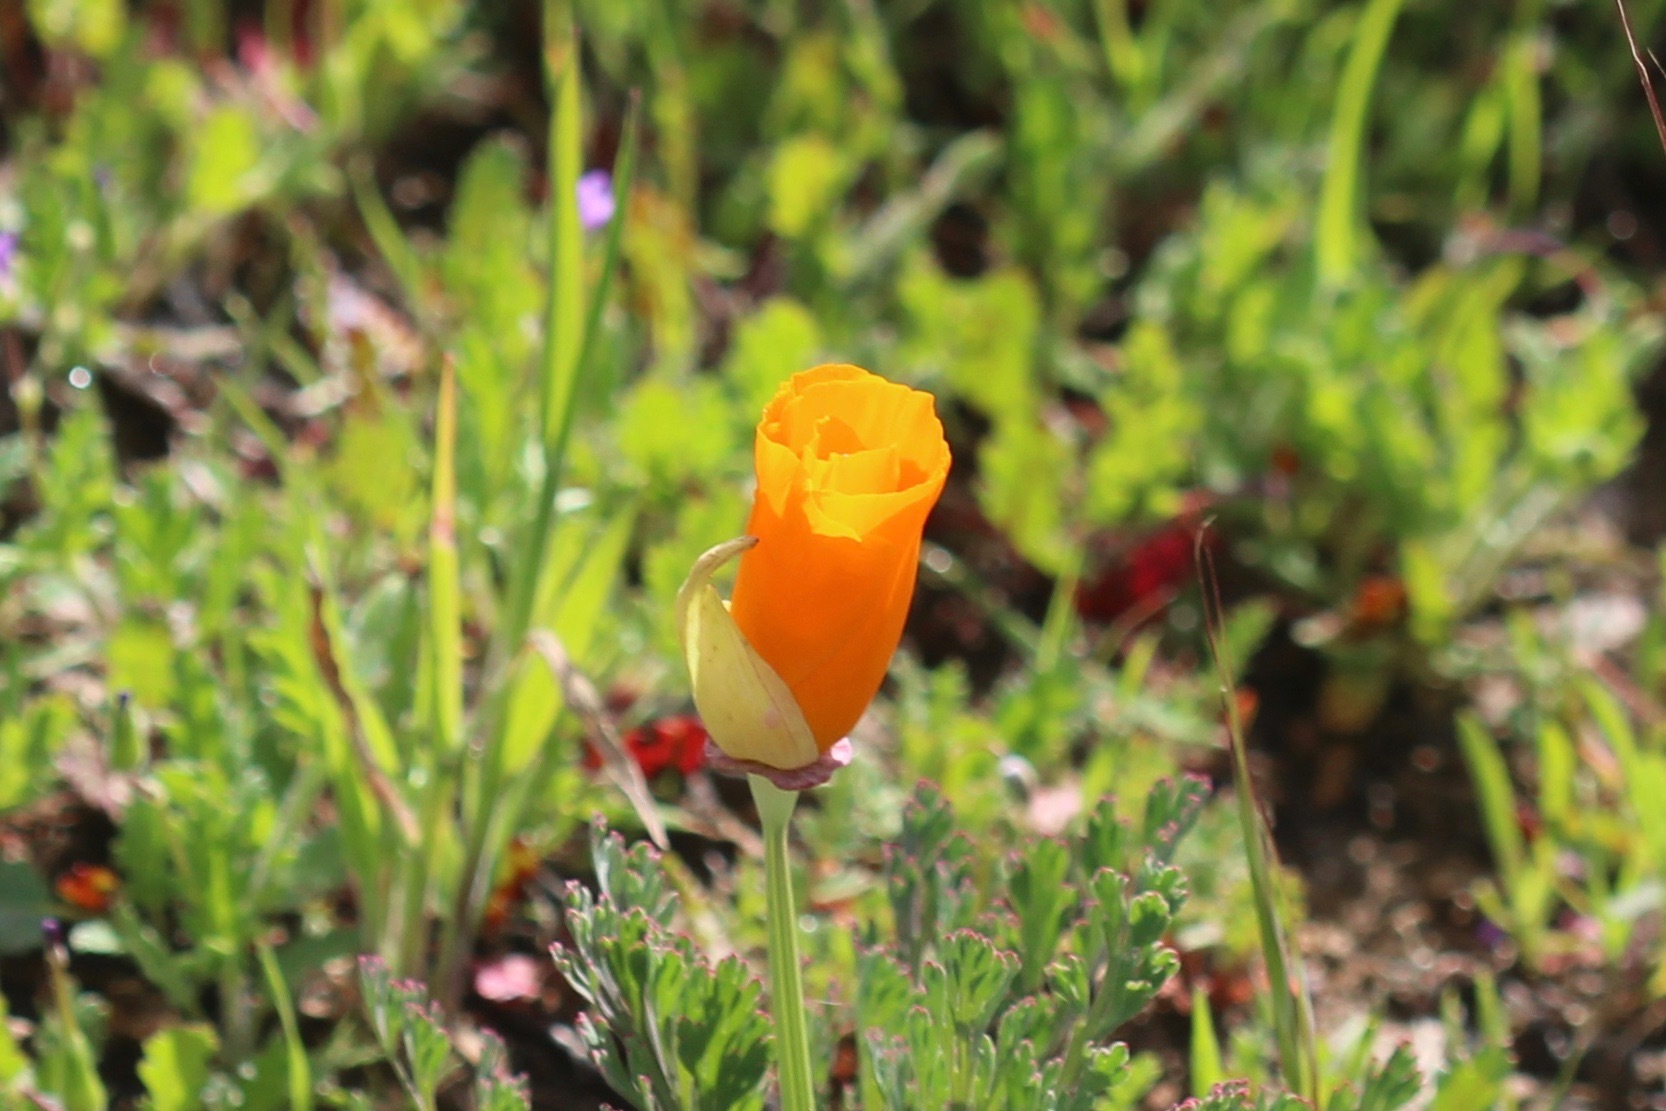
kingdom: Plantae
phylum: Tracheophyta
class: Magnoliopsida
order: Ranunculales
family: Papaveraceae
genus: Eschscholzia
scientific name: Eschscholzia californica
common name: California poppy
